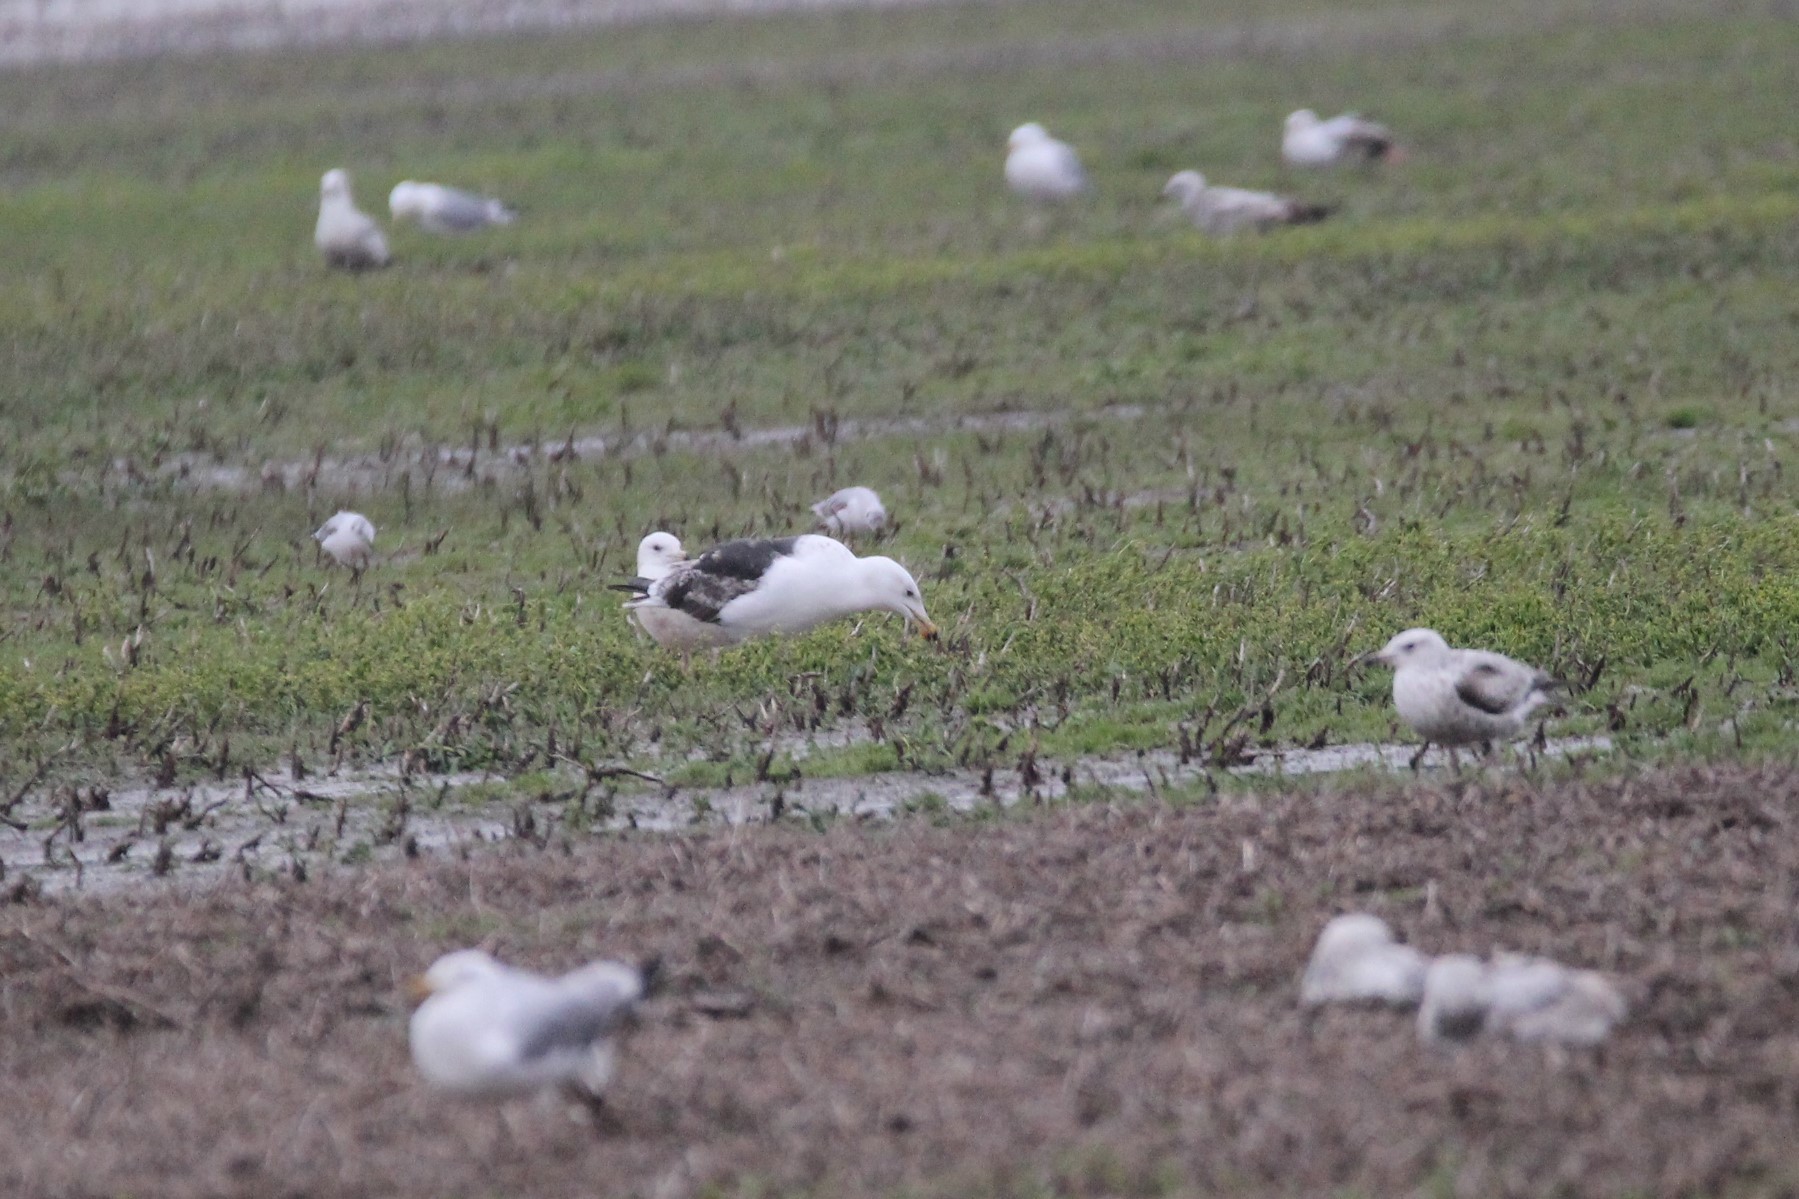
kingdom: Animalia
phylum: Chordata
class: Aves
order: Charadriiformes
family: Laridae
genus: Larus
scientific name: Larus marinus
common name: Great black-backed gull
